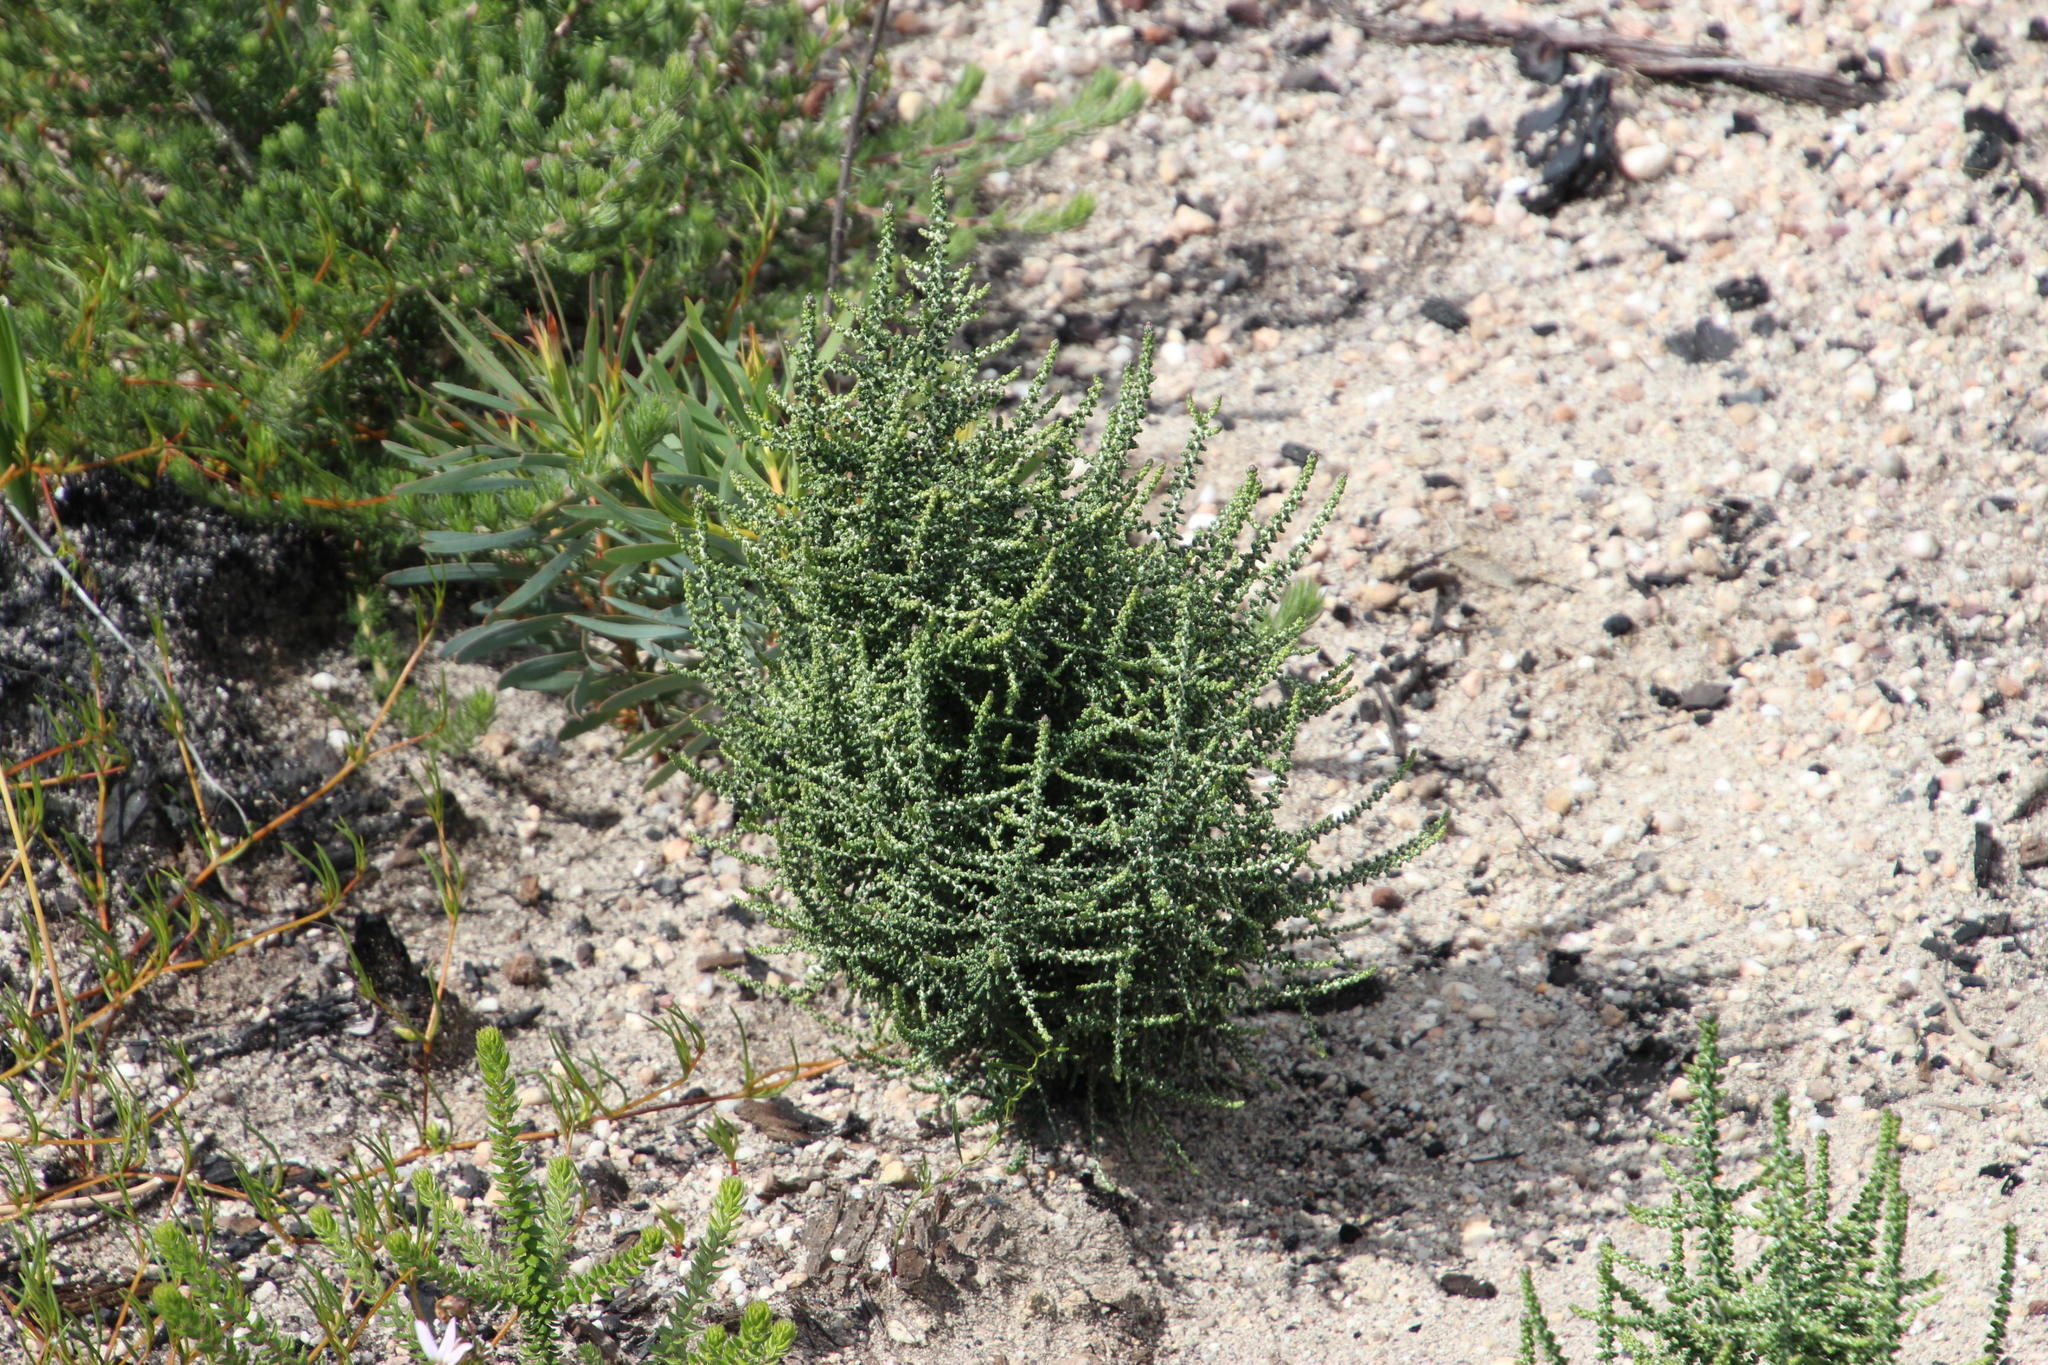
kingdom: Plantae
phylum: Tracheophyta
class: Magnoliopsida
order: Asterales
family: Asteraceae
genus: Phaenocoma
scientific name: Phaenocoma prolifera
